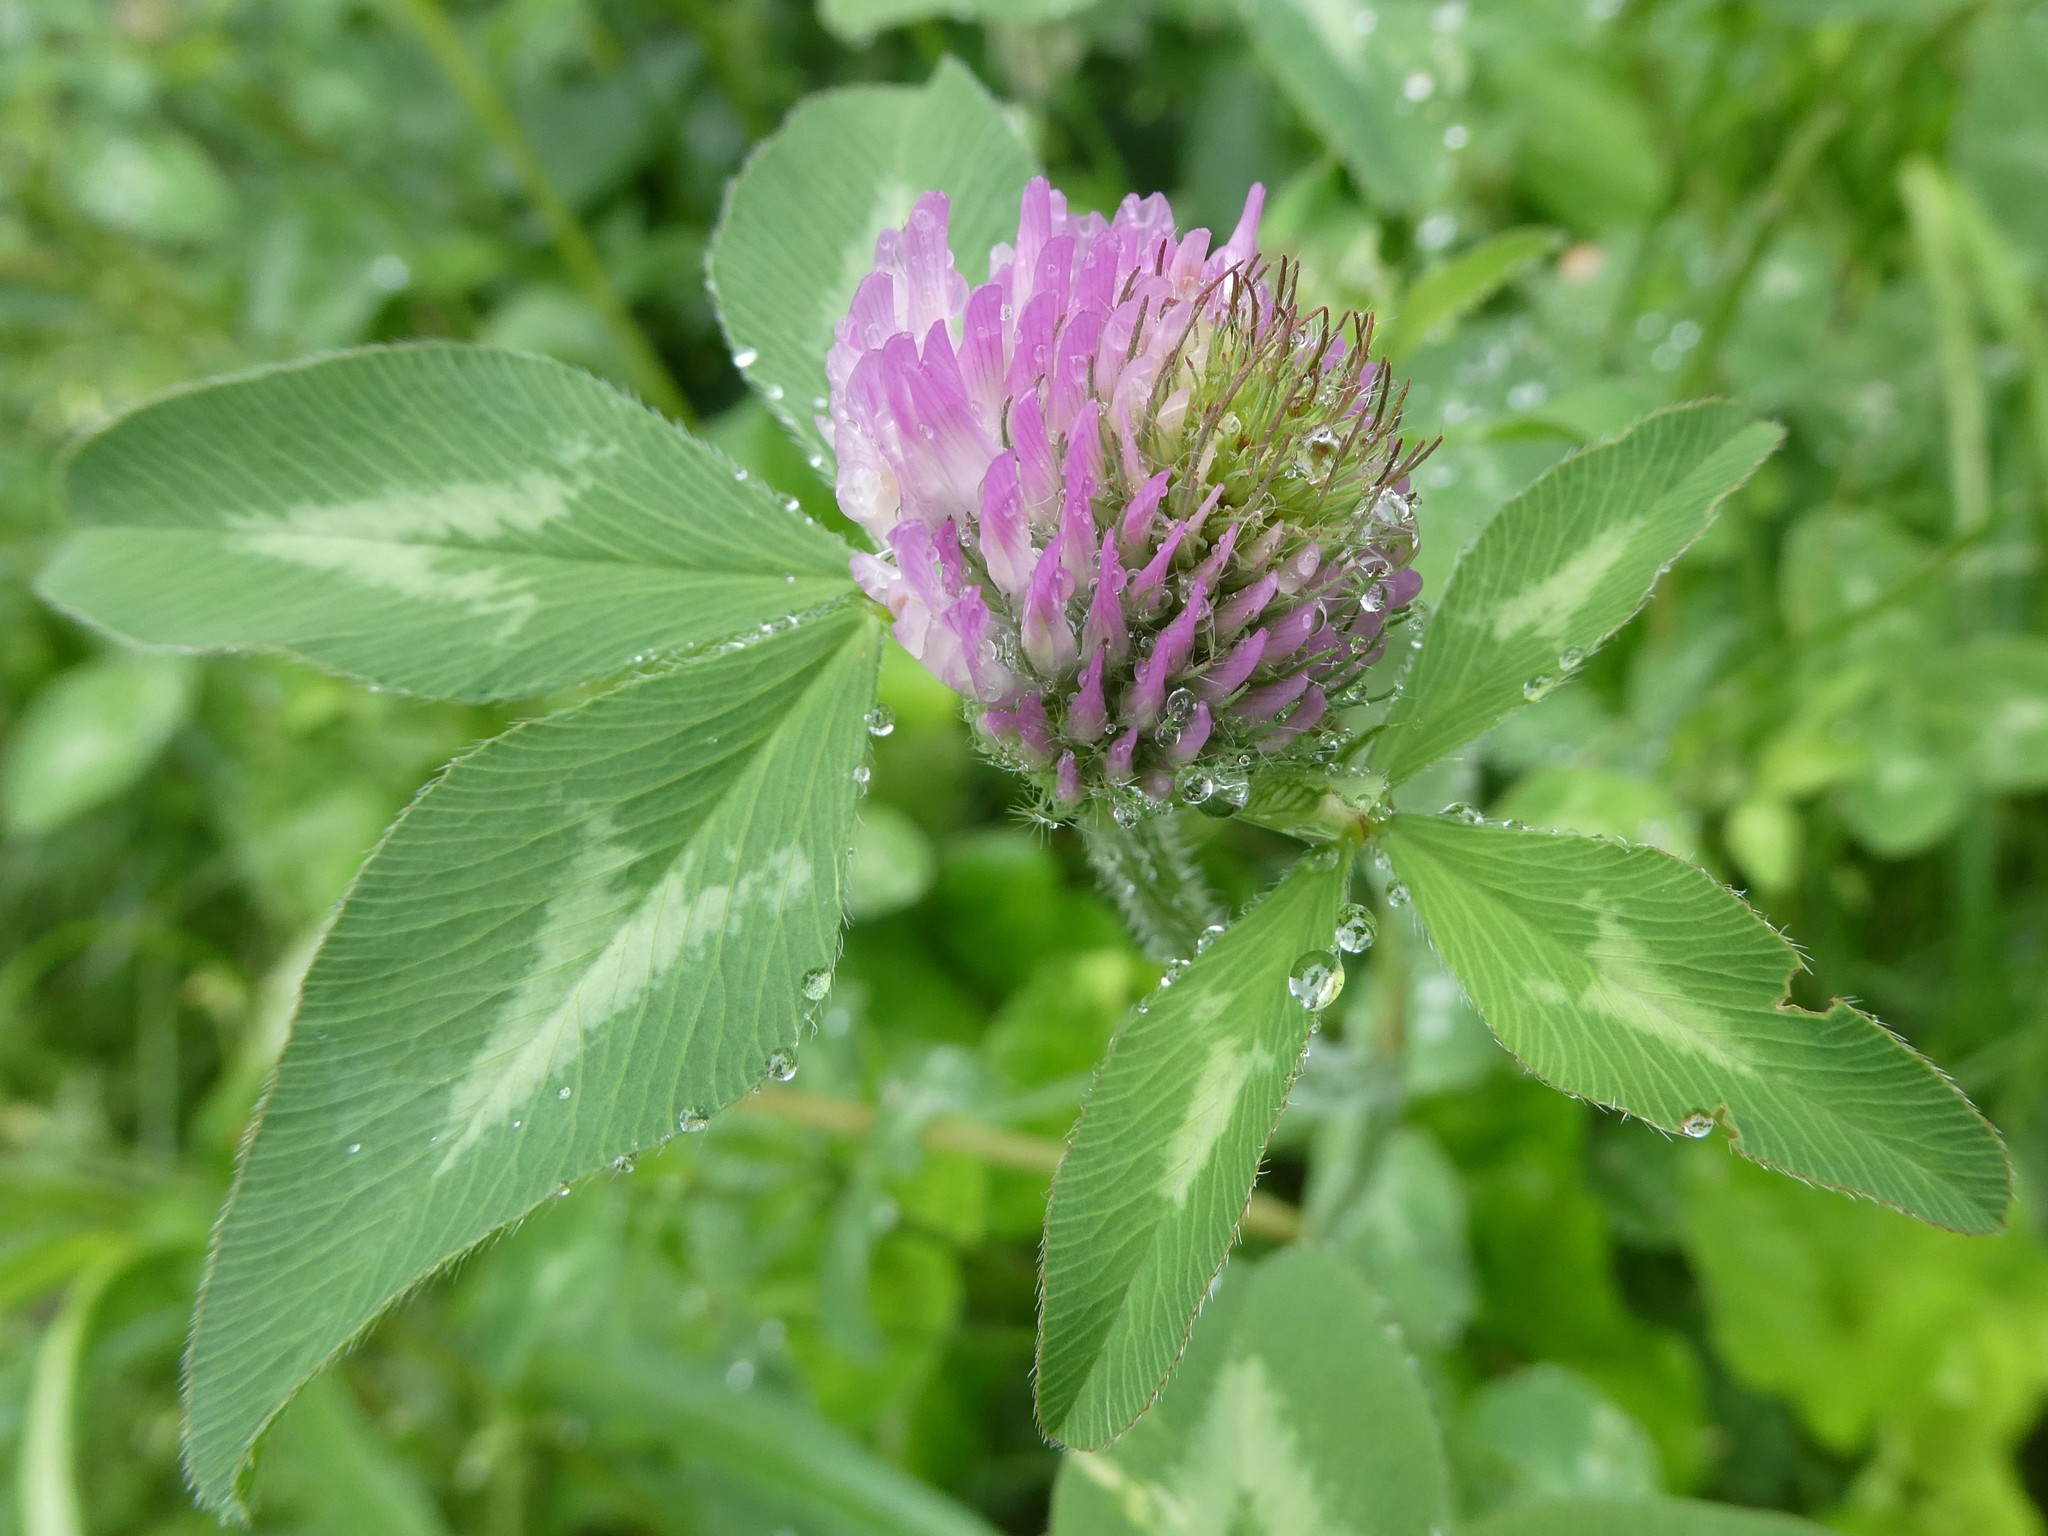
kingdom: Plantae
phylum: Tracheophyta
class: Magnoliopsida
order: Fabales
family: Fabaceae
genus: Trifolium
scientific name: Trifolium pratense
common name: Red clover
